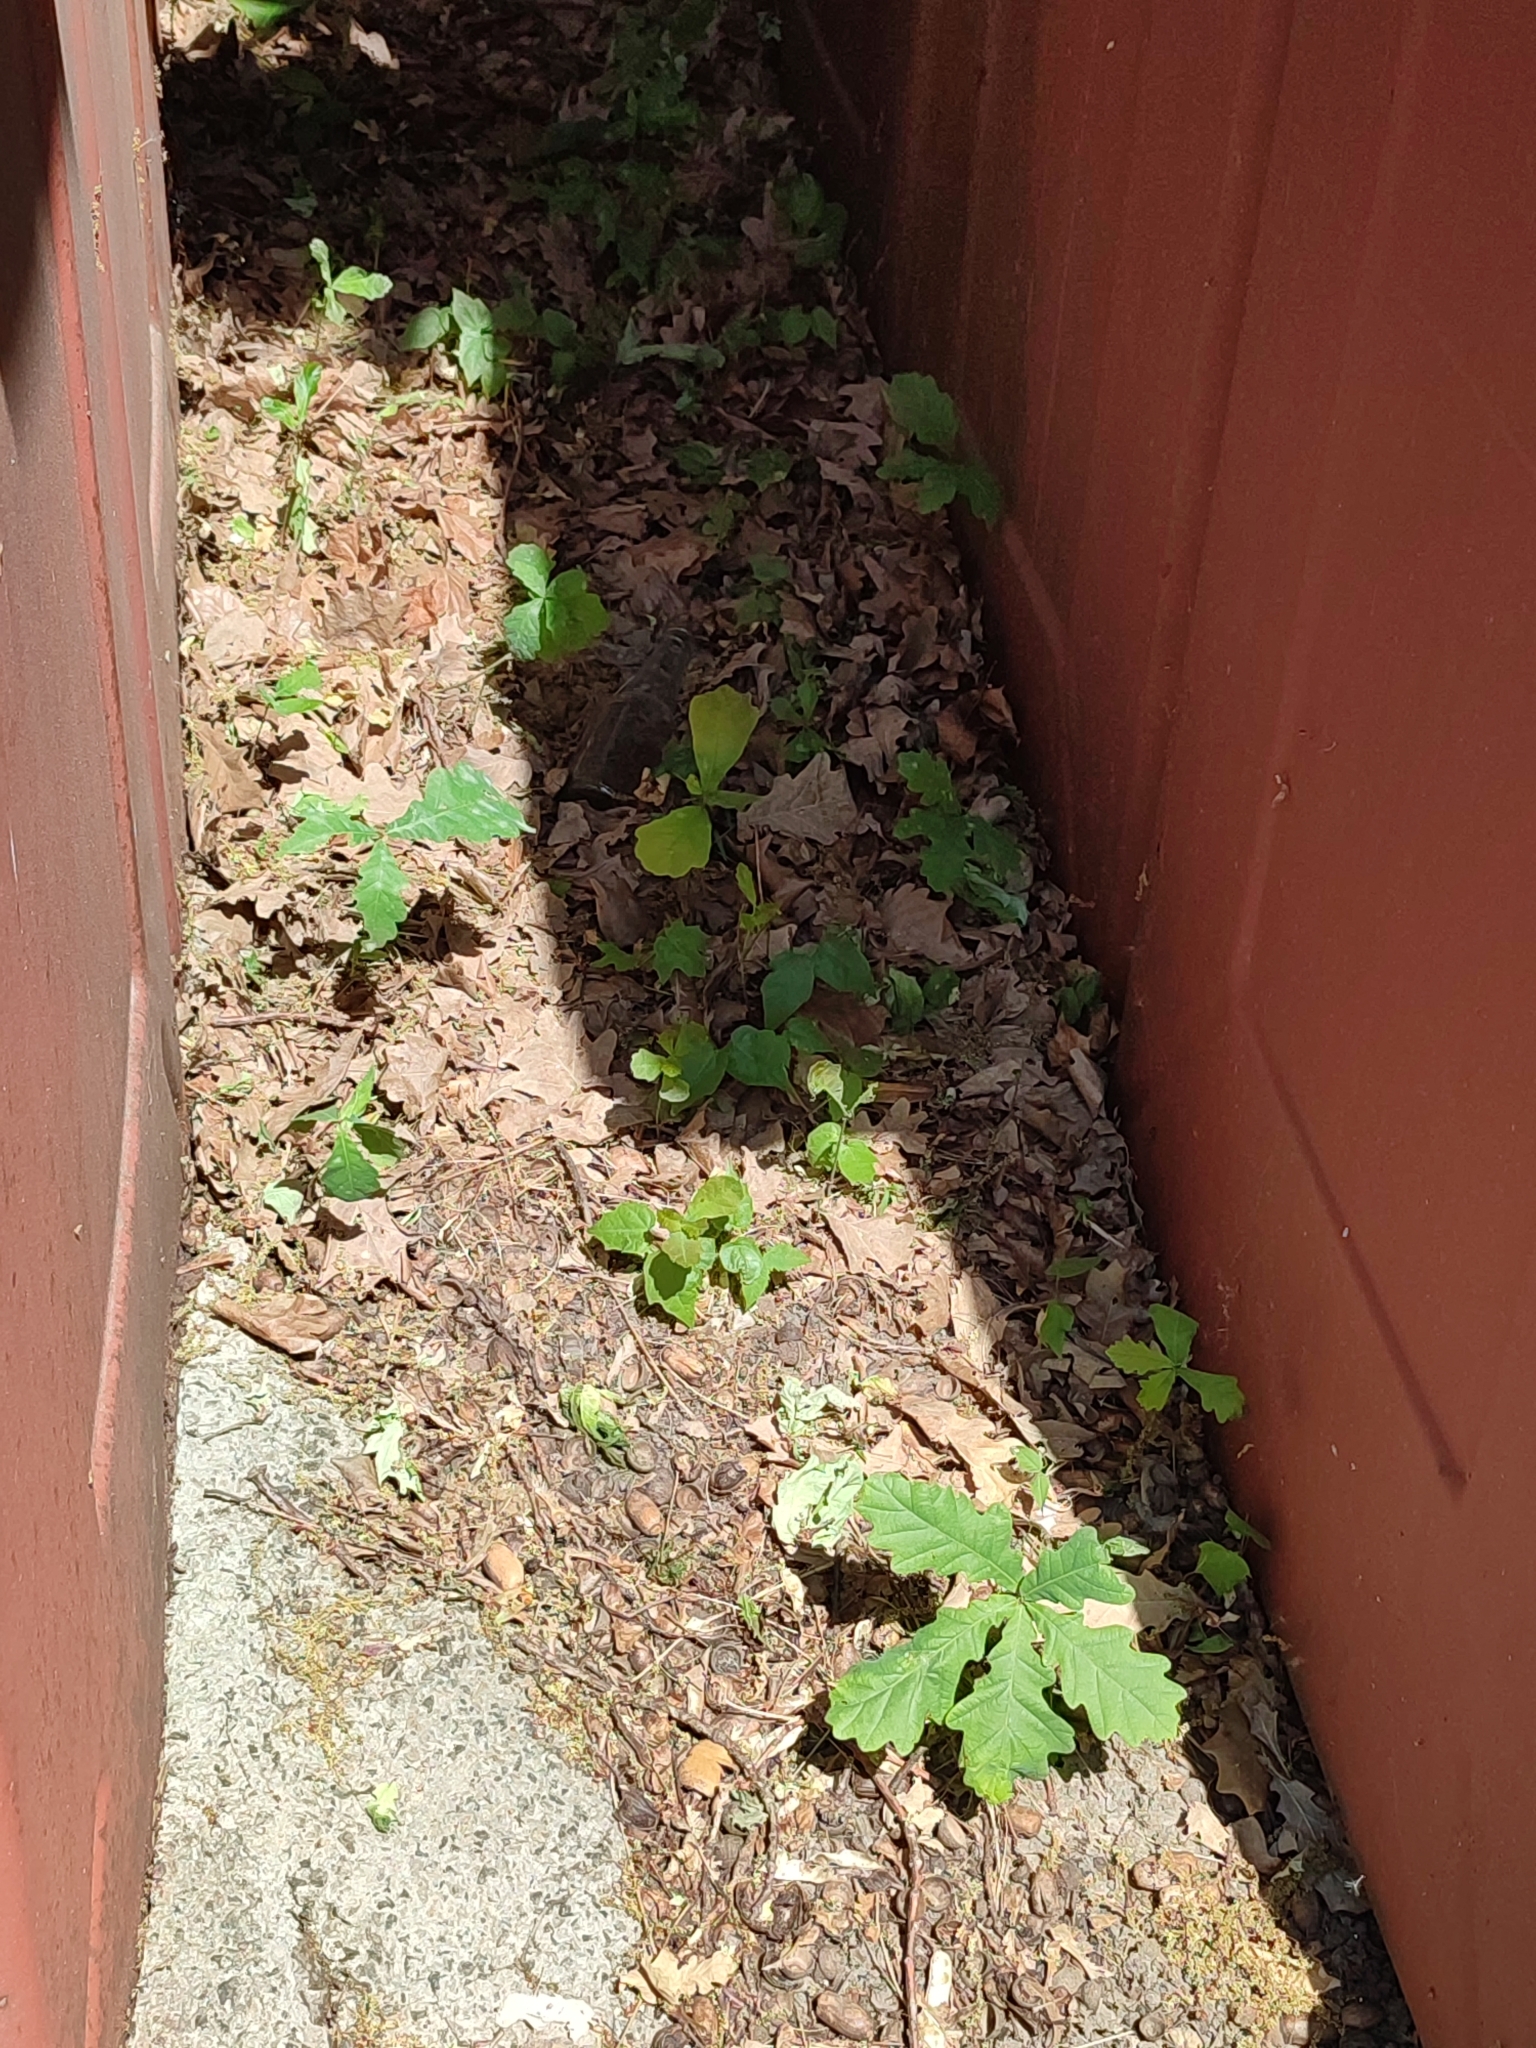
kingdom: Plantae
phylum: Tracheophyta
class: Magnoliopsida
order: Fagales
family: Fagaceae
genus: Quercus
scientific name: Quercus robur
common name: Pedunculate oak
